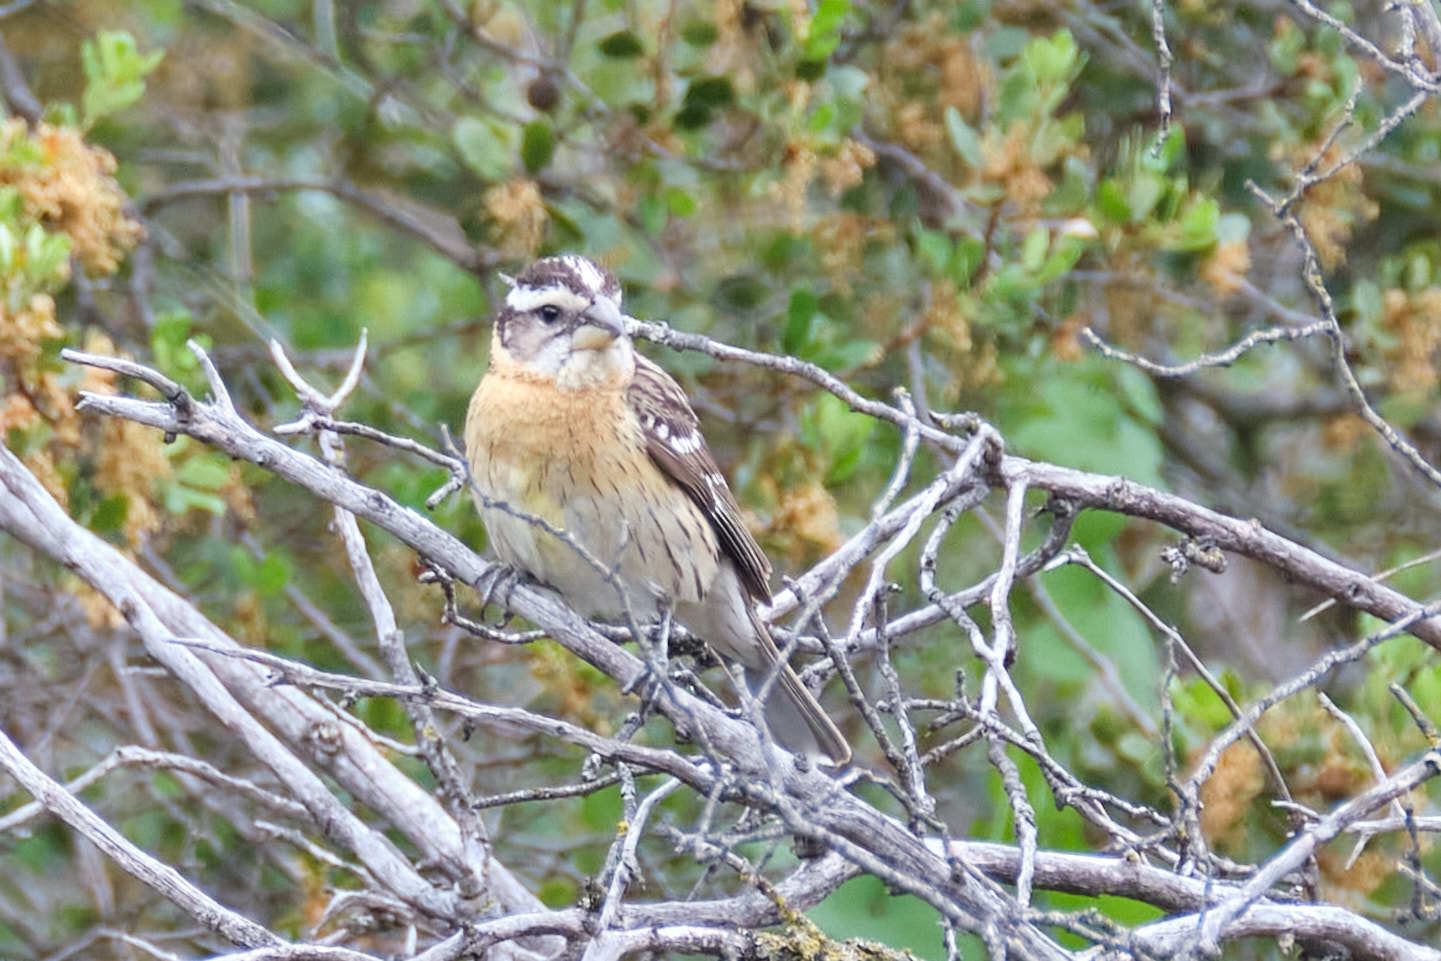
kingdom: Animalia
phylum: Chordata
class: Aves
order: Passeriformes
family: Cardinalidae
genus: Pheucticus
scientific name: Pheucticus melanocephalus
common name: Black-headed grosbeak
